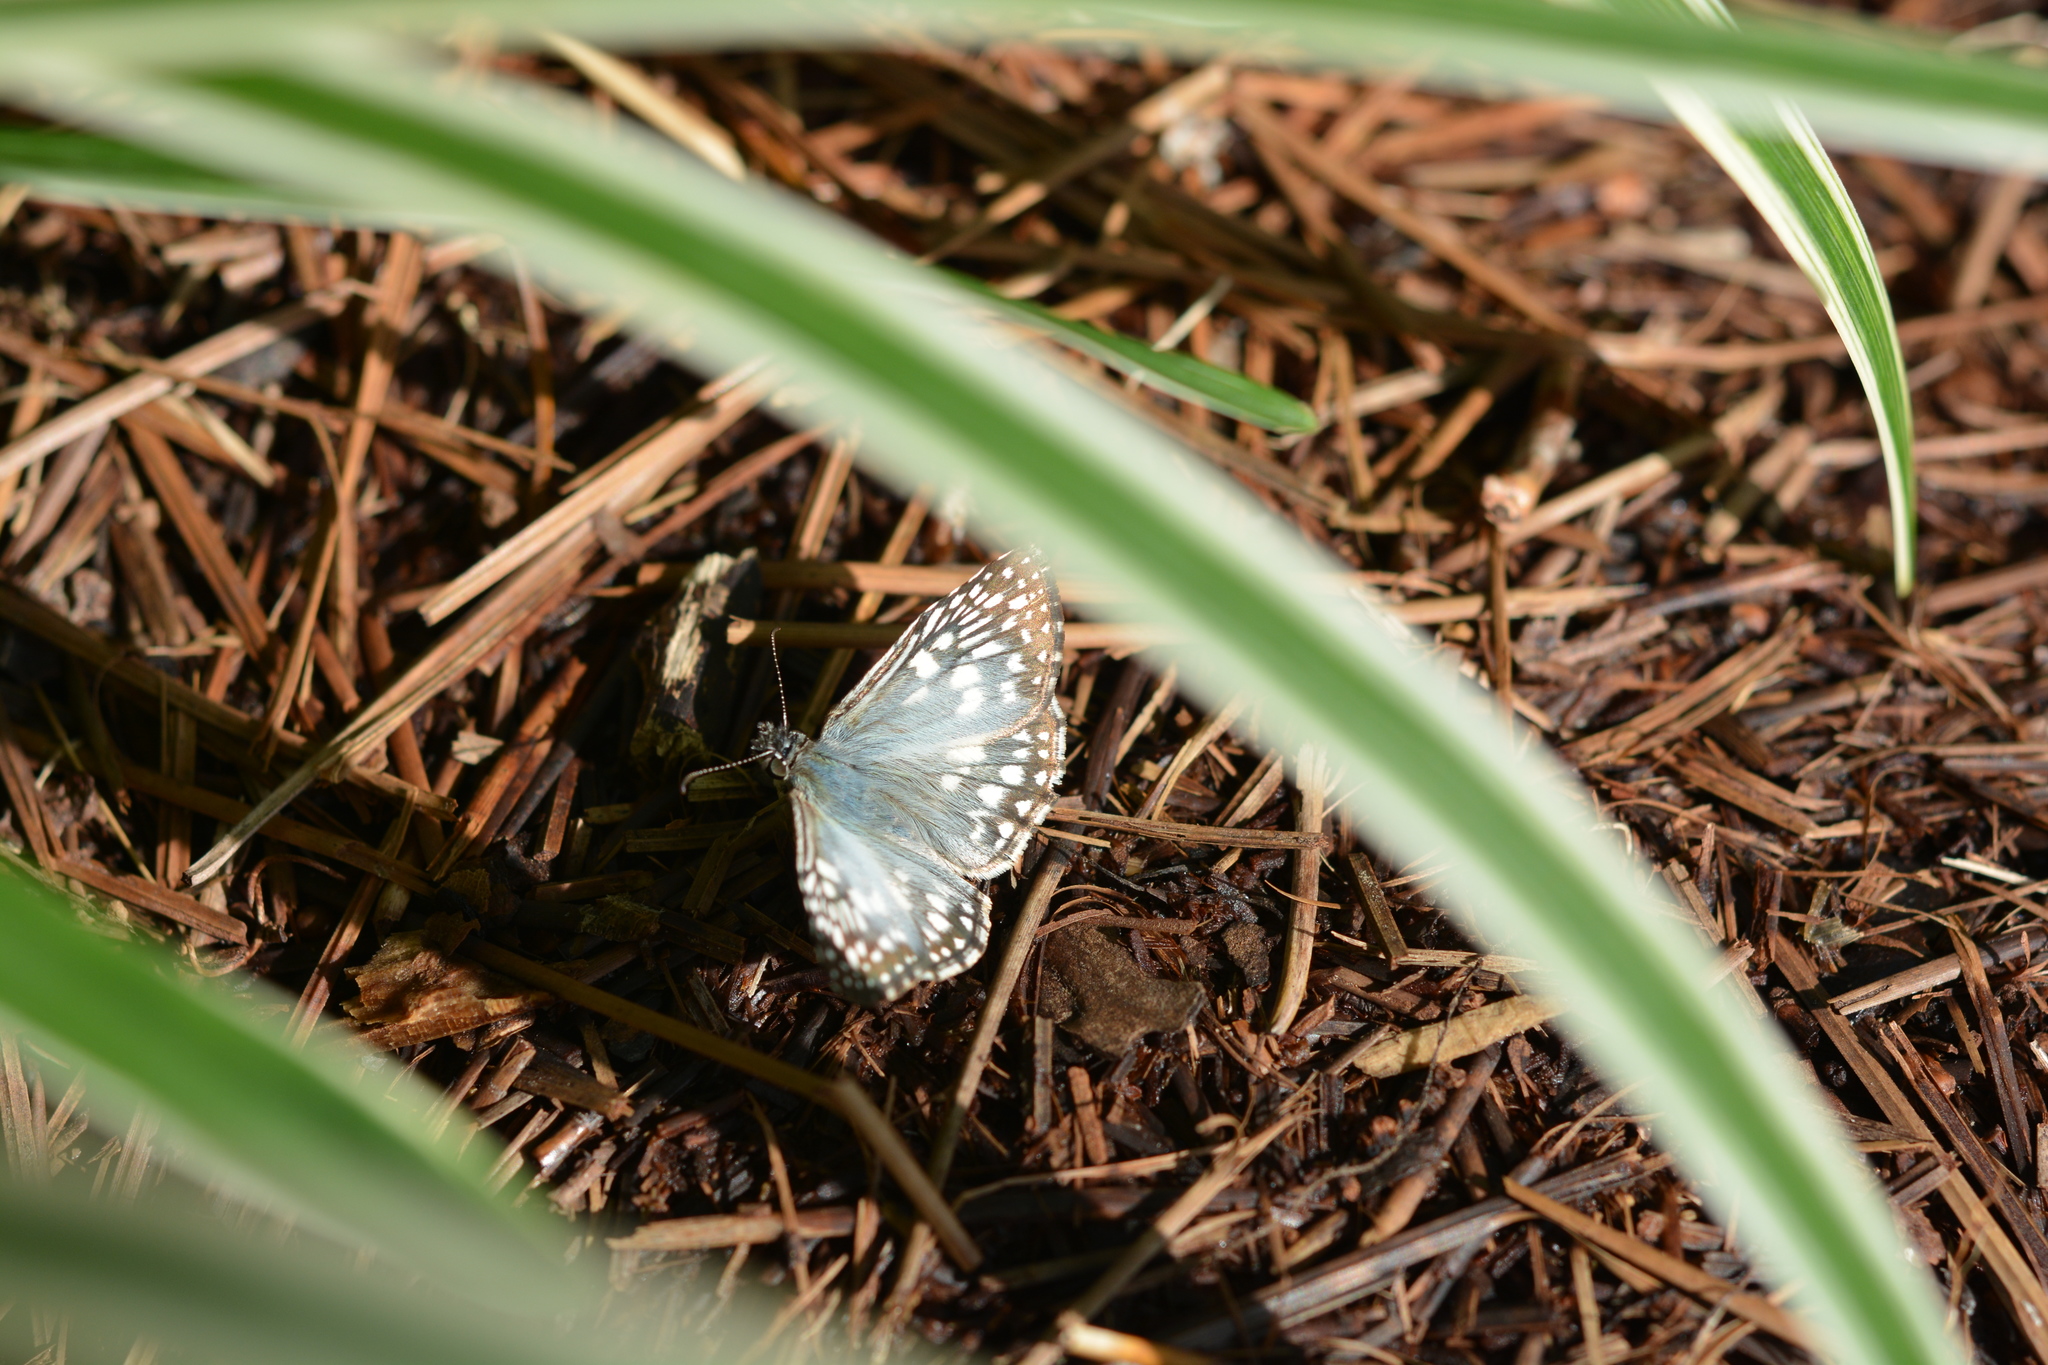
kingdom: Animalia
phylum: Arthropoda
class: Insecta
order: Lepidoptera
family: Hesperiidae
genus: Pyrgus
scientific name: Pyrgus oileus
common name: Tropical checkered-skipper
